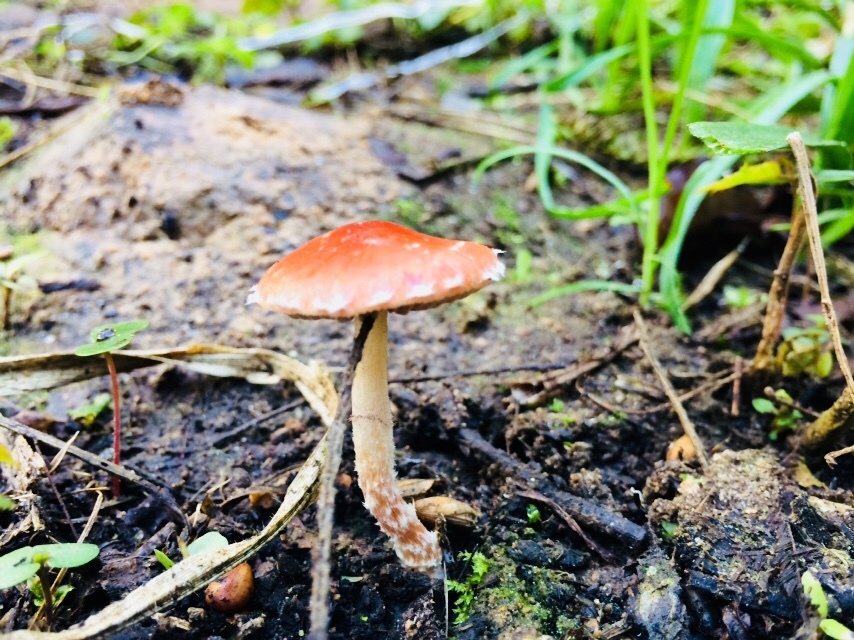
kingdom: Fungi
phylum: Basidiomycota
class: Agaricomycetes
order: Agaricales
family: Strophariaceae
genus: Leratiomyces
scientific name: Leratiomyces ceres
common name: Redlead roundhead
